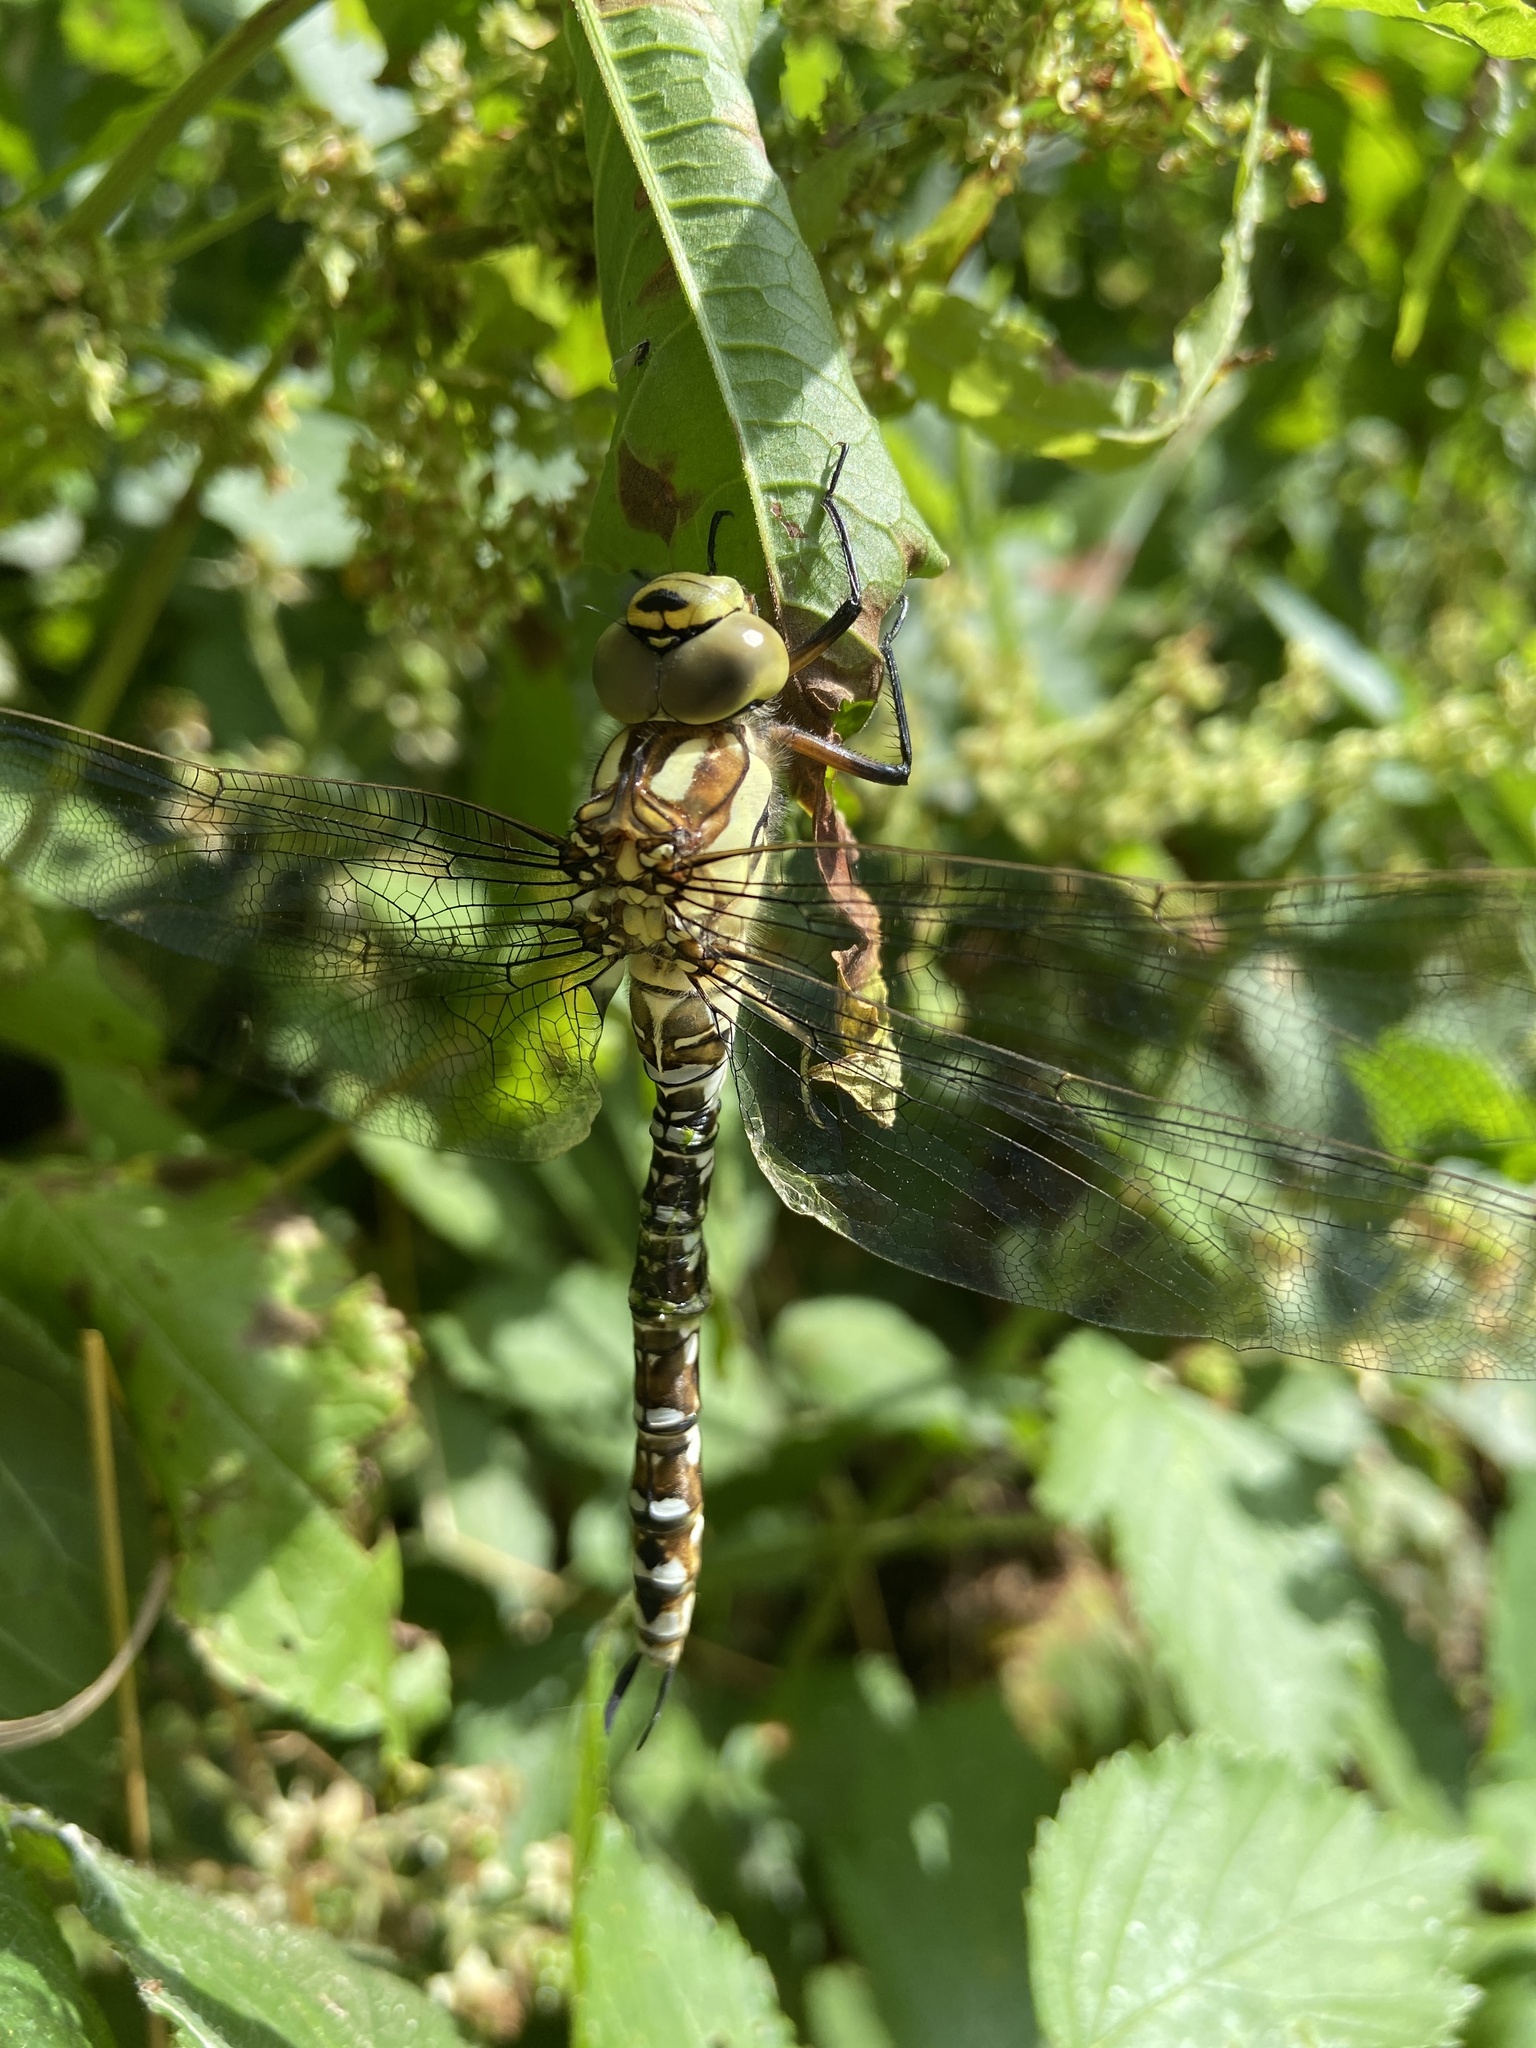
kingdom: Animalia
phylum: Arthropoda
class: Insecta
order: Odonata
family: Aeshnidae
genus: Aeshna
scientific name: Aeshna cyanea
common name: Southern hawker
